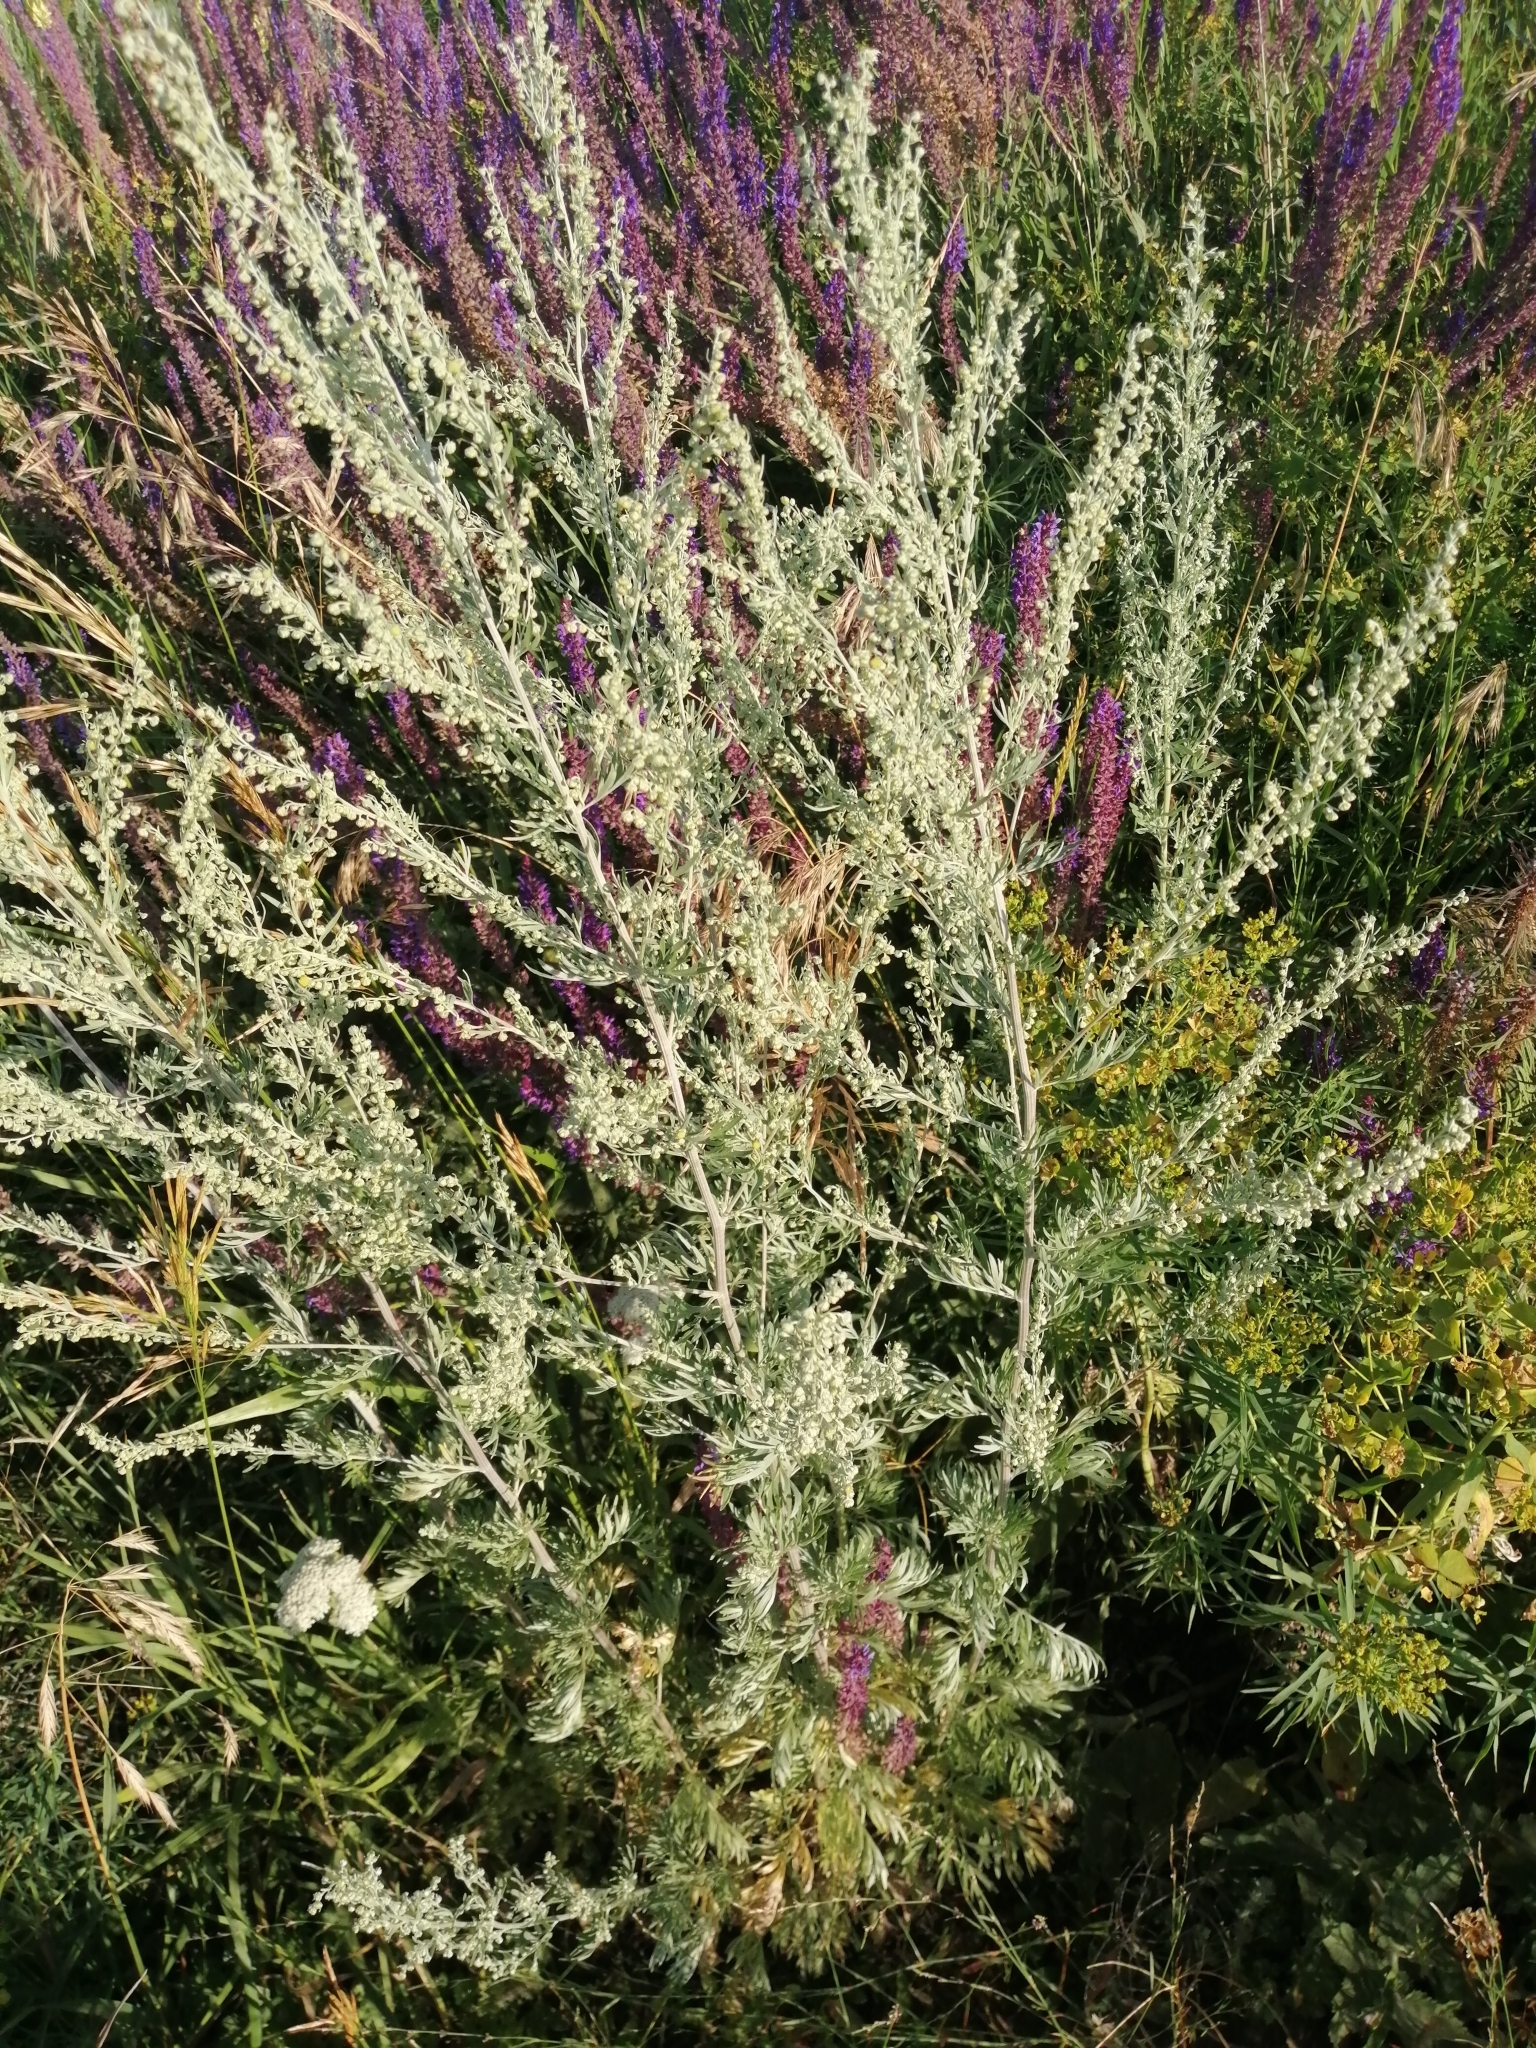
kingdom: Plantae
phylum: Tracheophyta
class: Magnoliopsida
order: Asterales
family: Asteraceae
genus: Artemisia
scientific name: Artemisia sieversiana
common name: Sieversian wormwood
